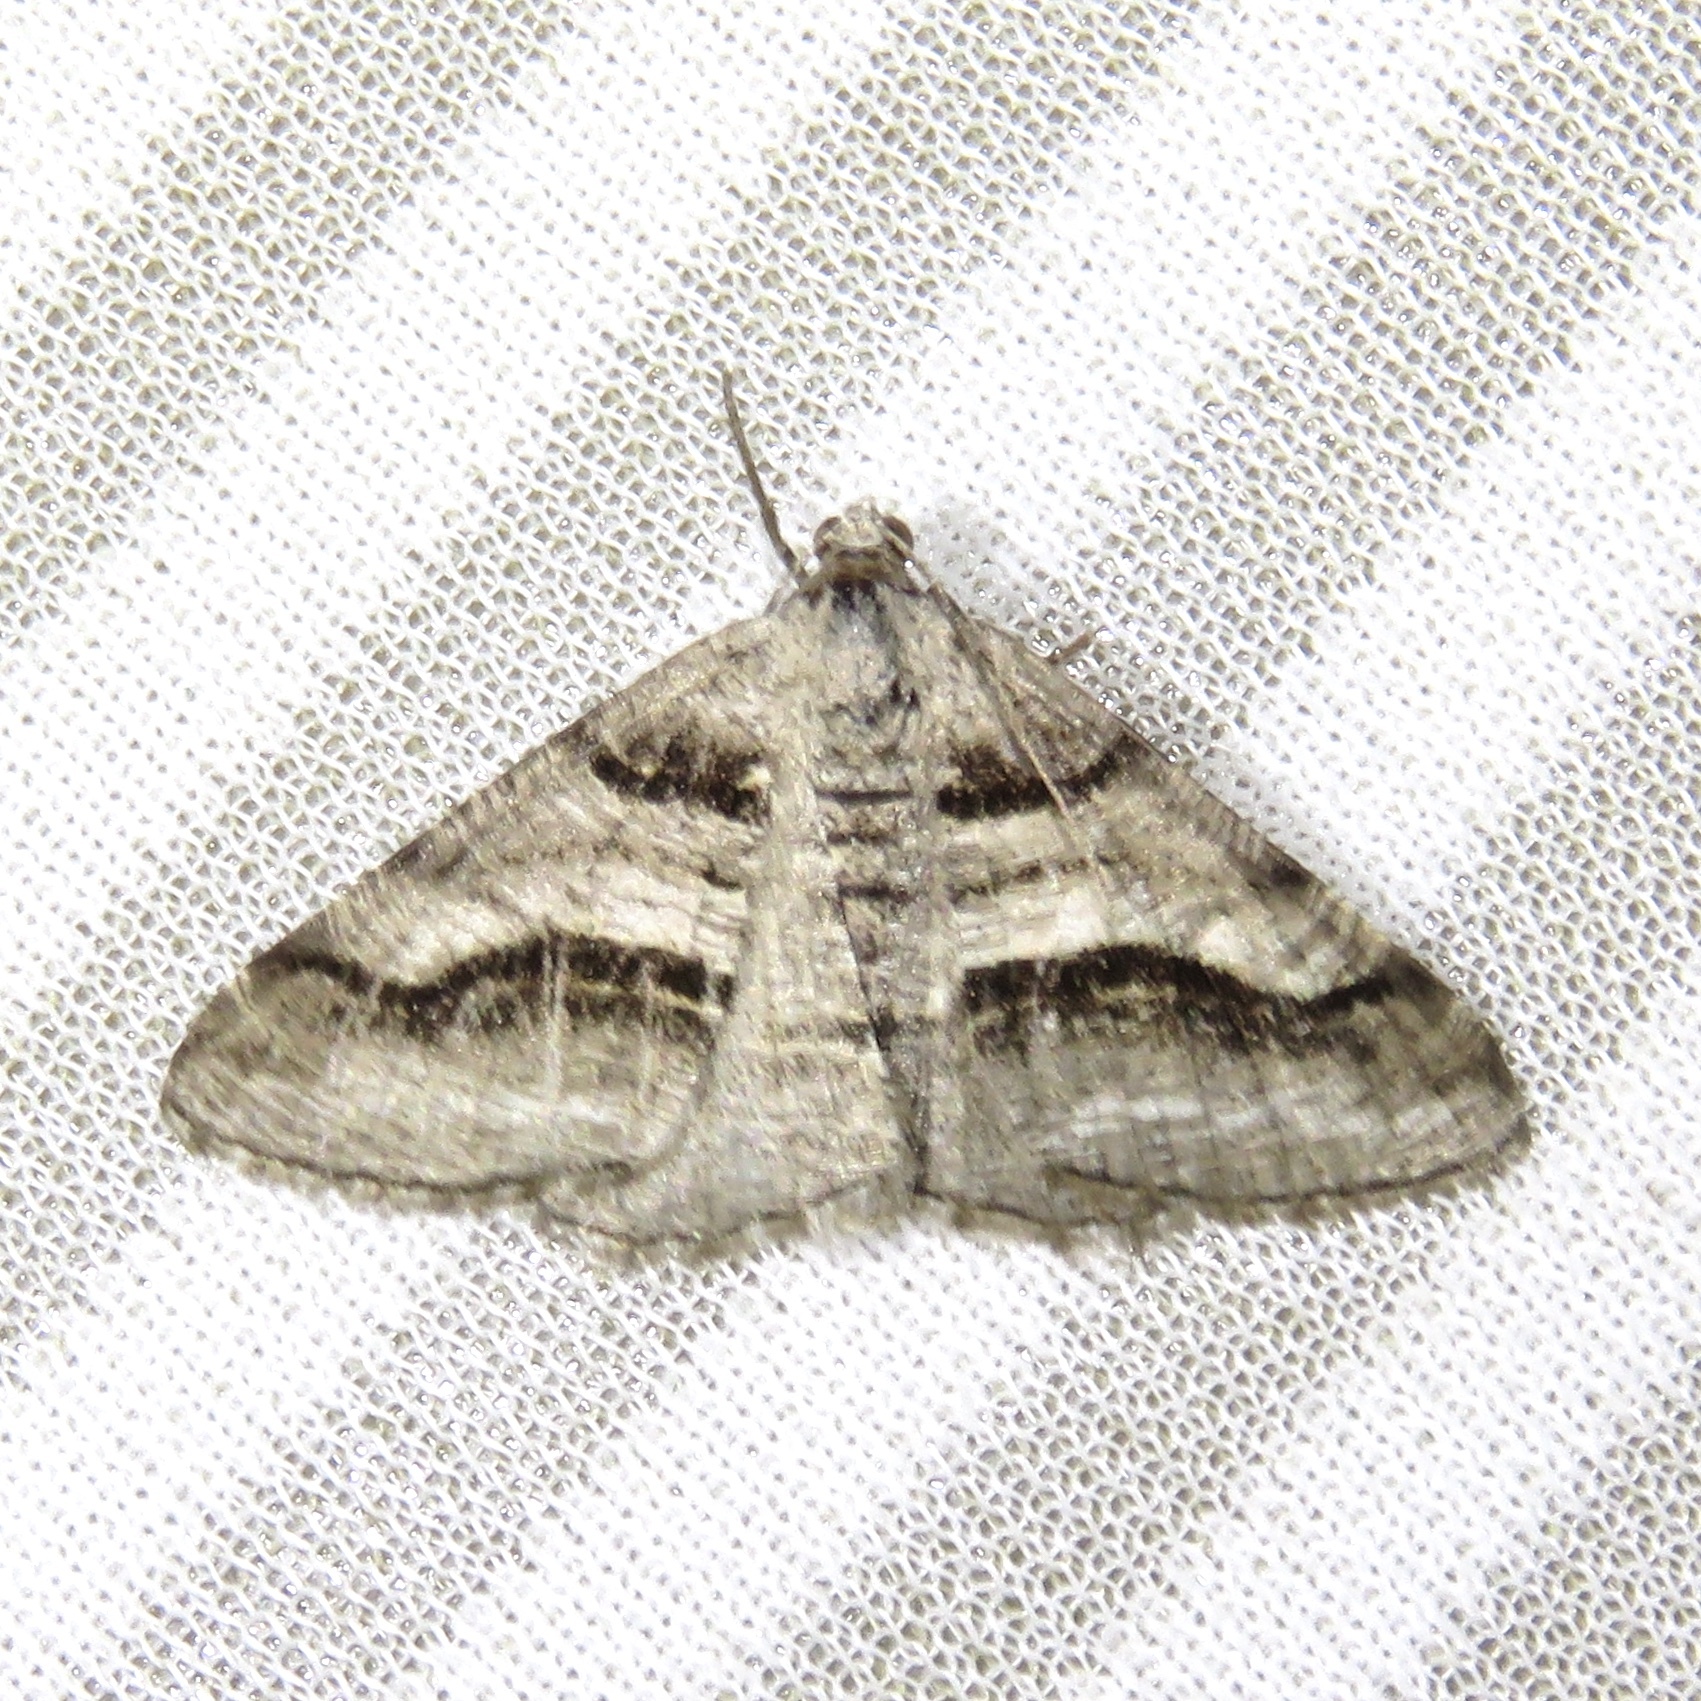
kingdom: Animalia
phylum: Arthropoda
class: Insecta
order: Lepidoptera
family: Geometridae
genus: Digrammia
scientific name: Digrammia continuata
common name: Curve-lined angle
